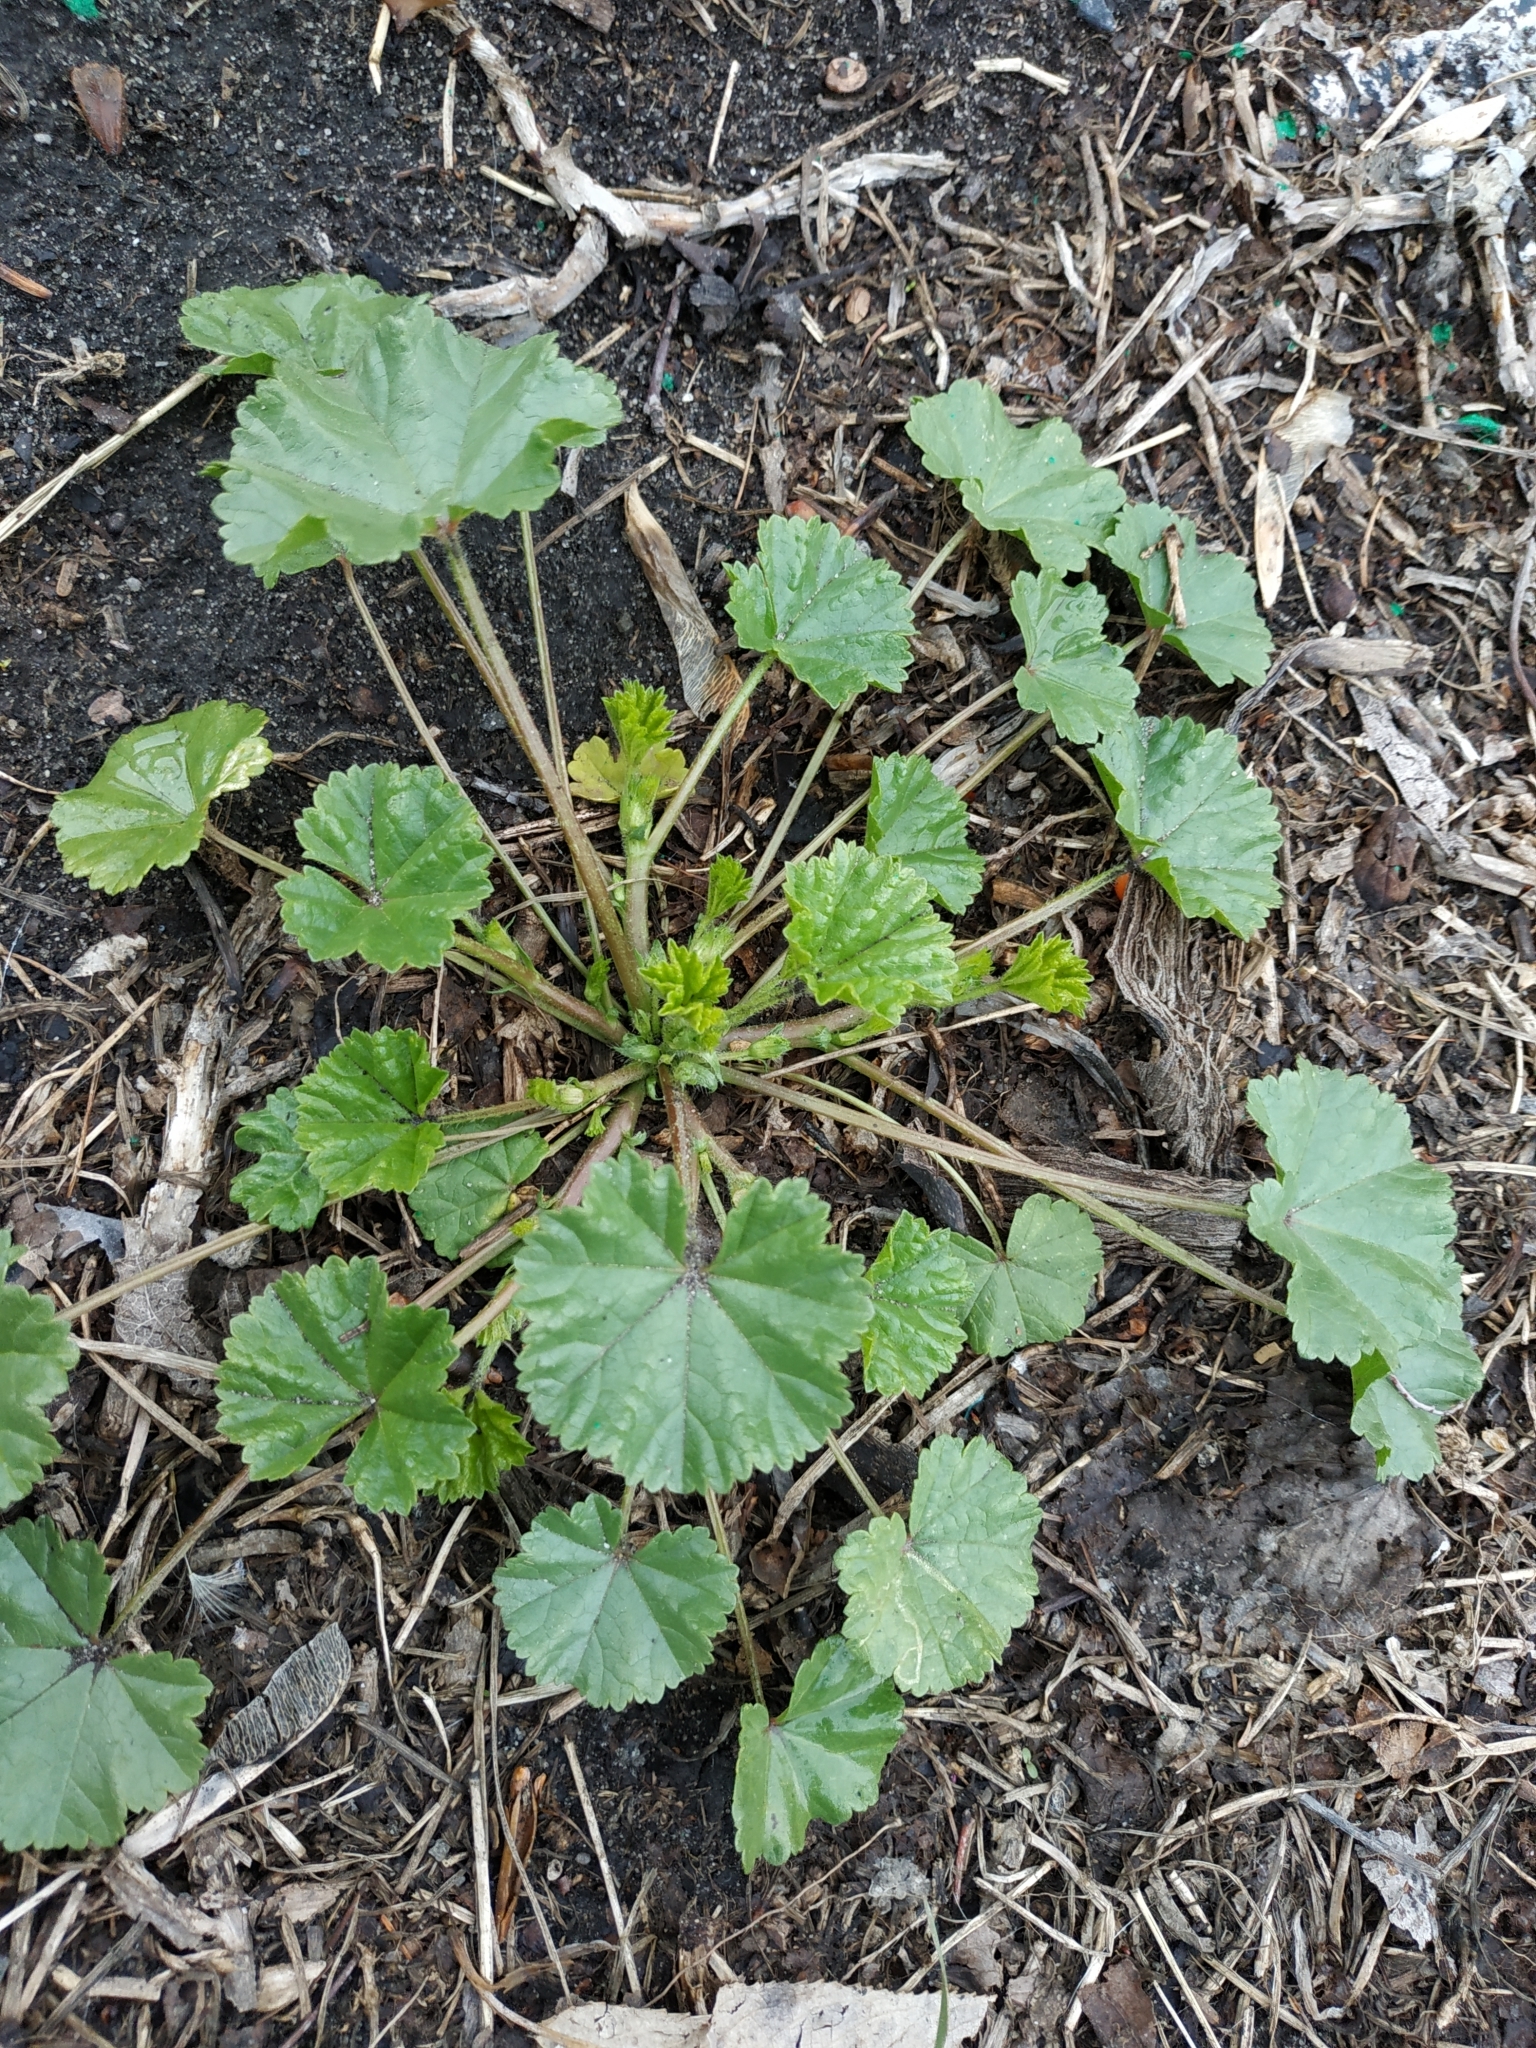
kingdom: Plantae
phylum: Tracheophyta
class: Magnoliopsida
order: Malvales
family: Malvaceae
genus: Malva
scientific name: Malva pusilla
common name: Small mallow
